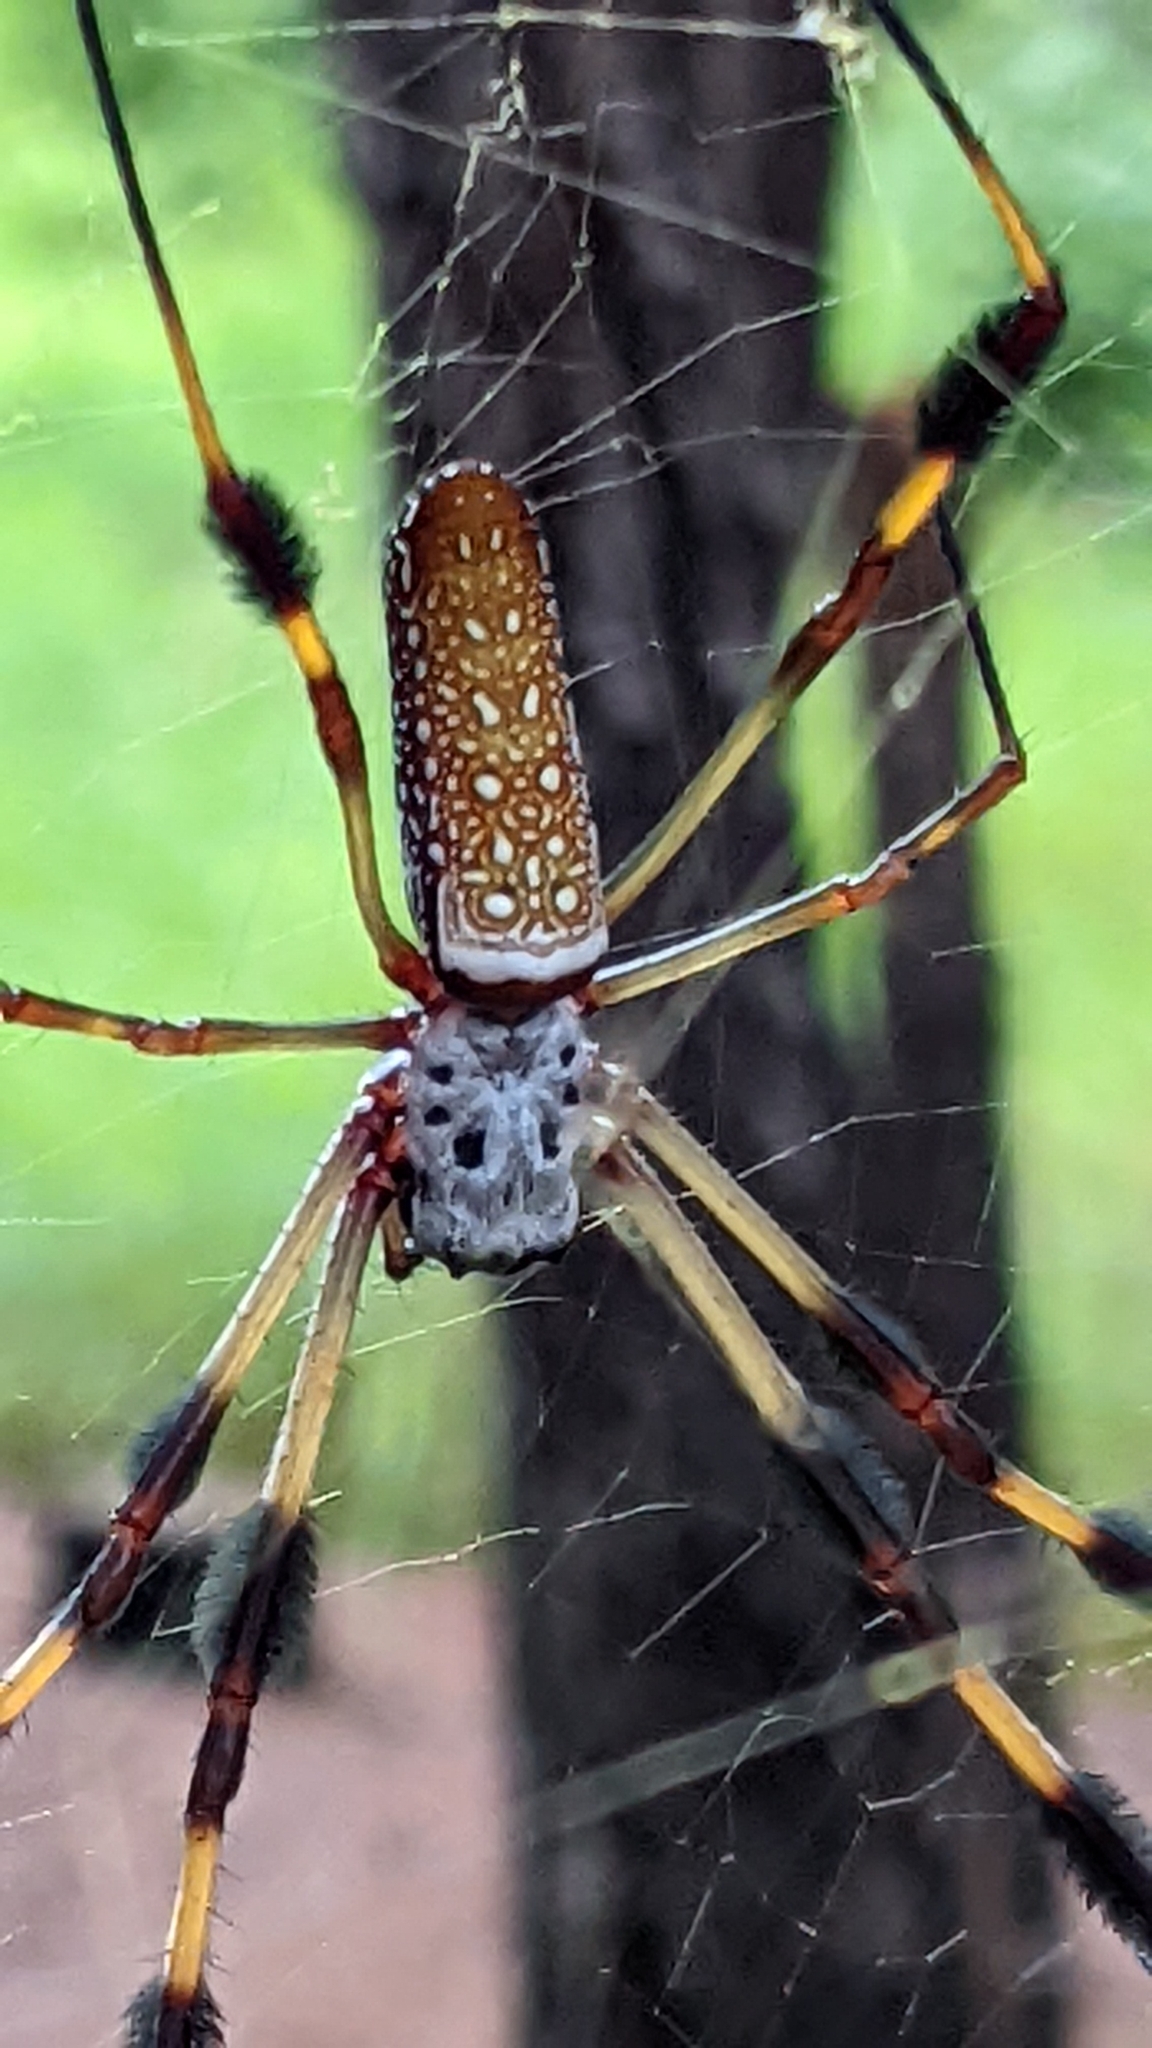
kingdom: Animalia
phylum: Arthropoda
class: Arachnida
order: Araneae
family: Araneidae
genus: Trichonephila
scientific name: Trichonephila clavipes
